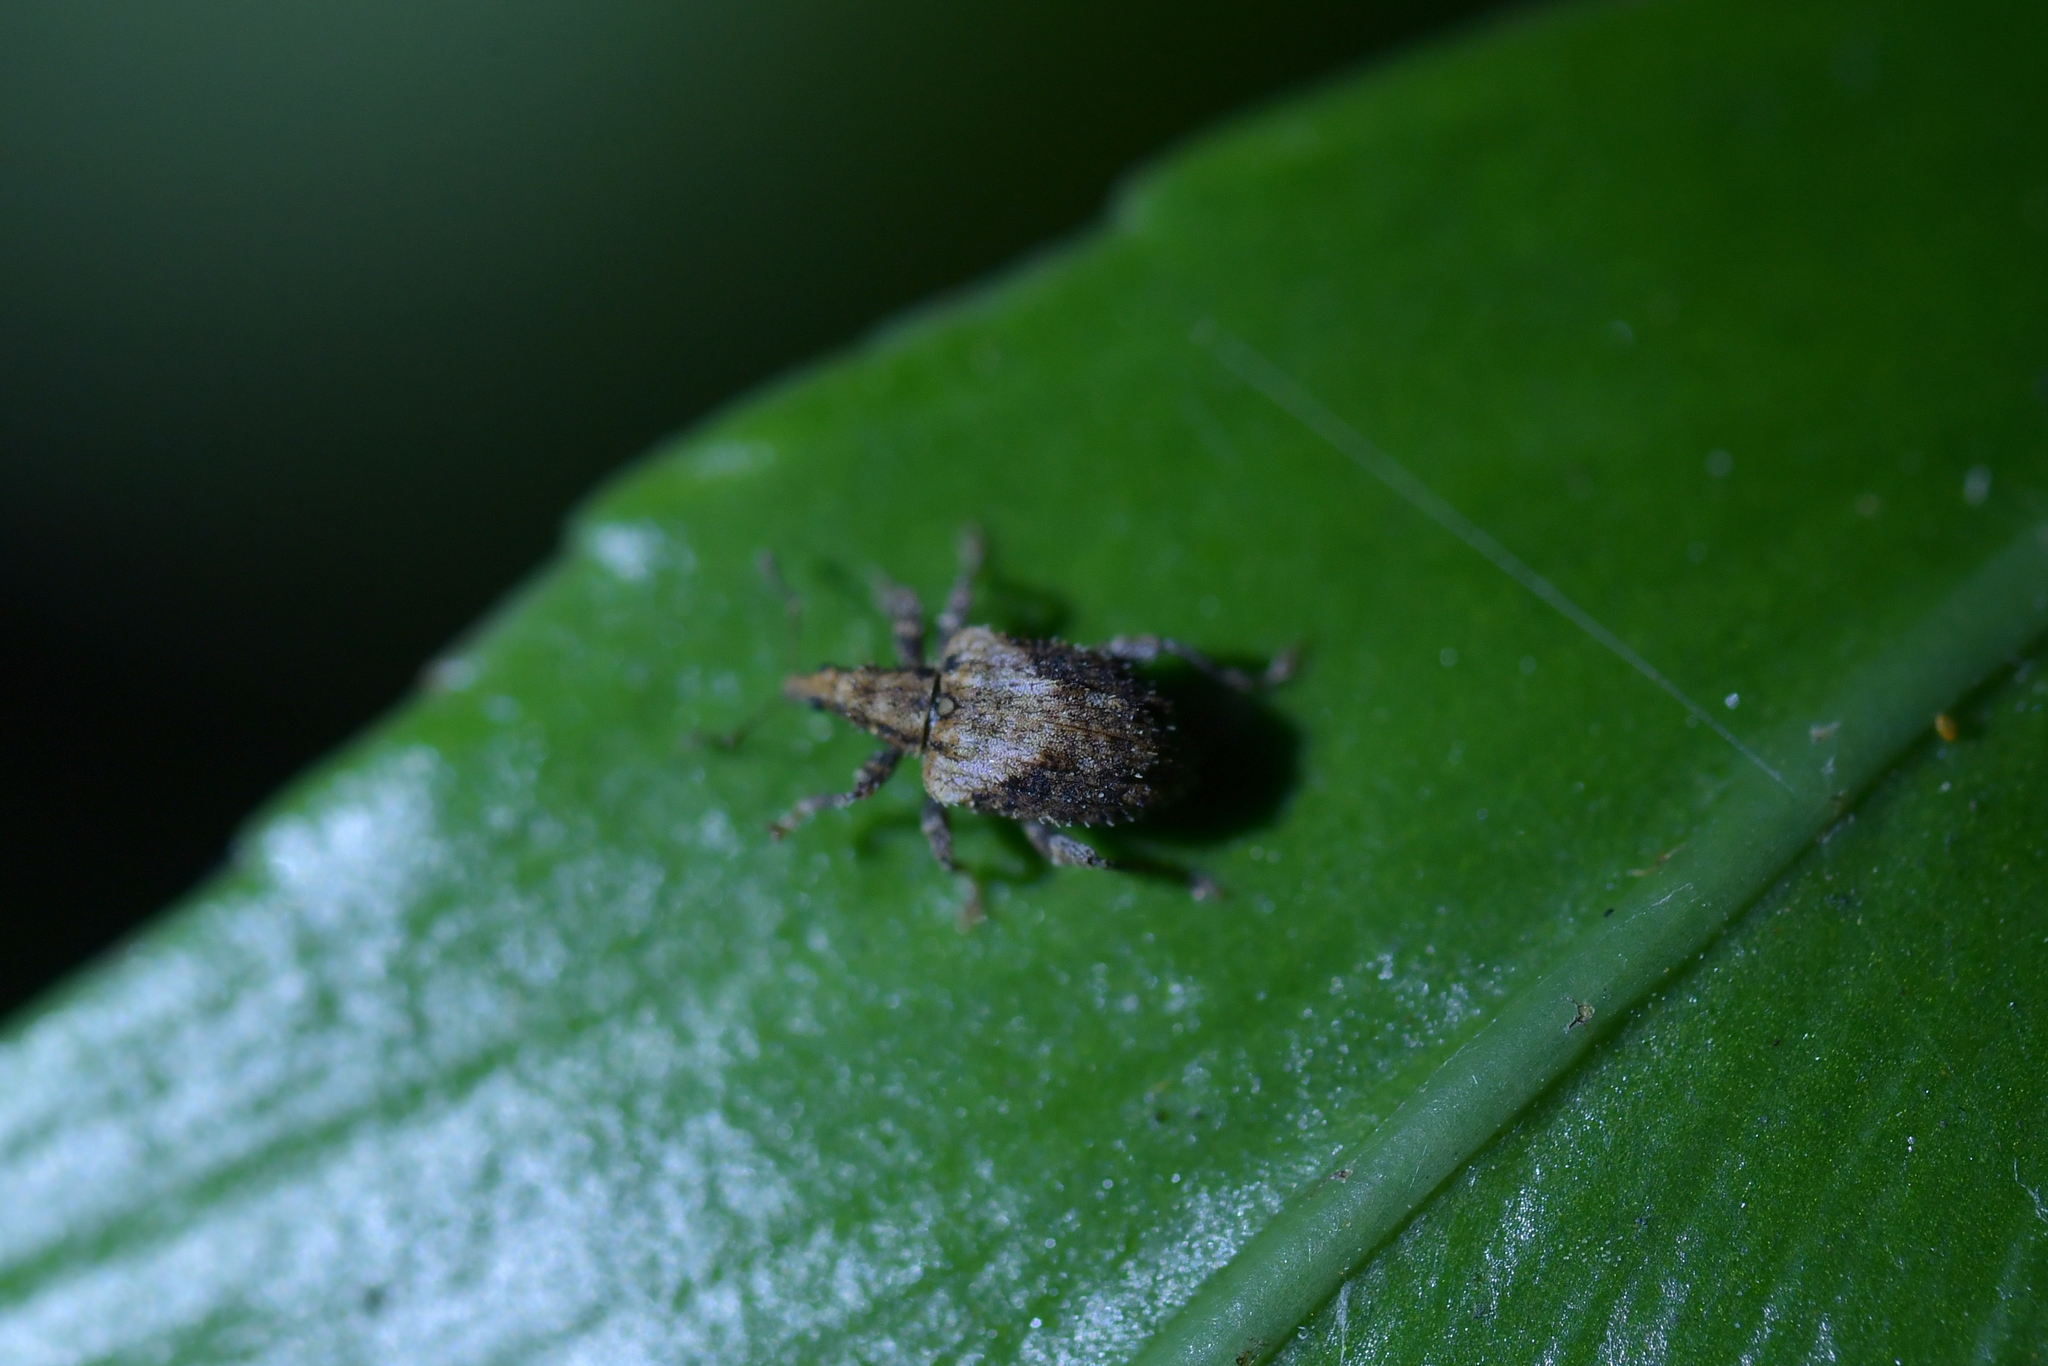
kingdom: Animalia
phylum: Arthropoda
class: Insecta
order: Coleoptera
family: Curculionidae
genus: Tysius
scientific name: Tysius bicornis
